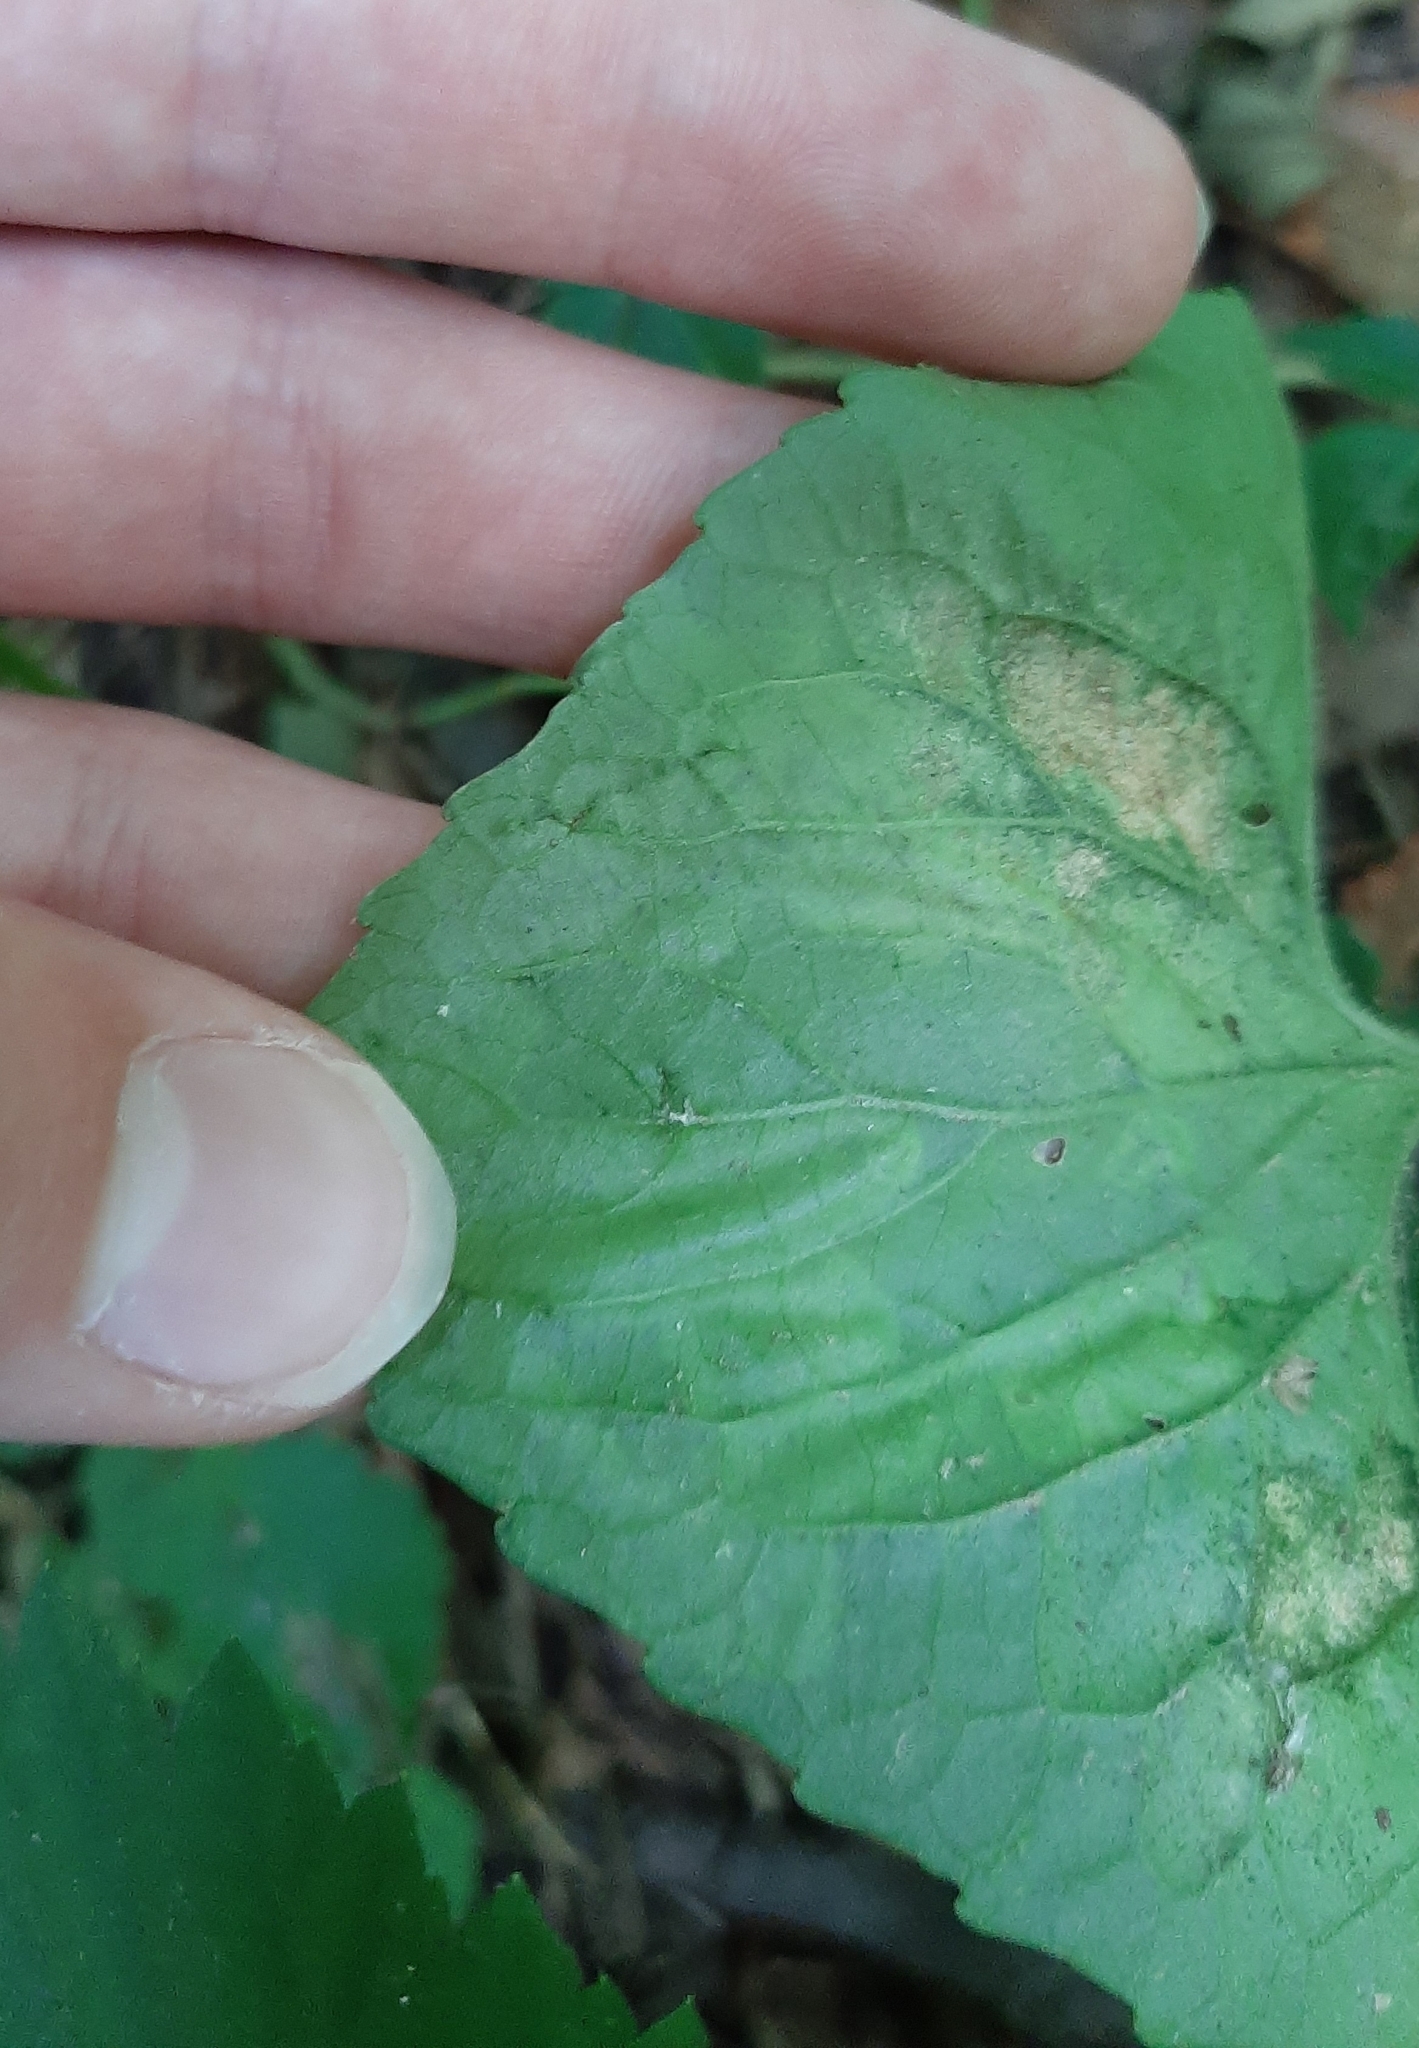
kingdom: Animalia
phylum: Arthropoda
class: Insecta
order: Diptera
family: Agromyzidae
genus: Liriomyza
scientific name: Liriomyza violivora
